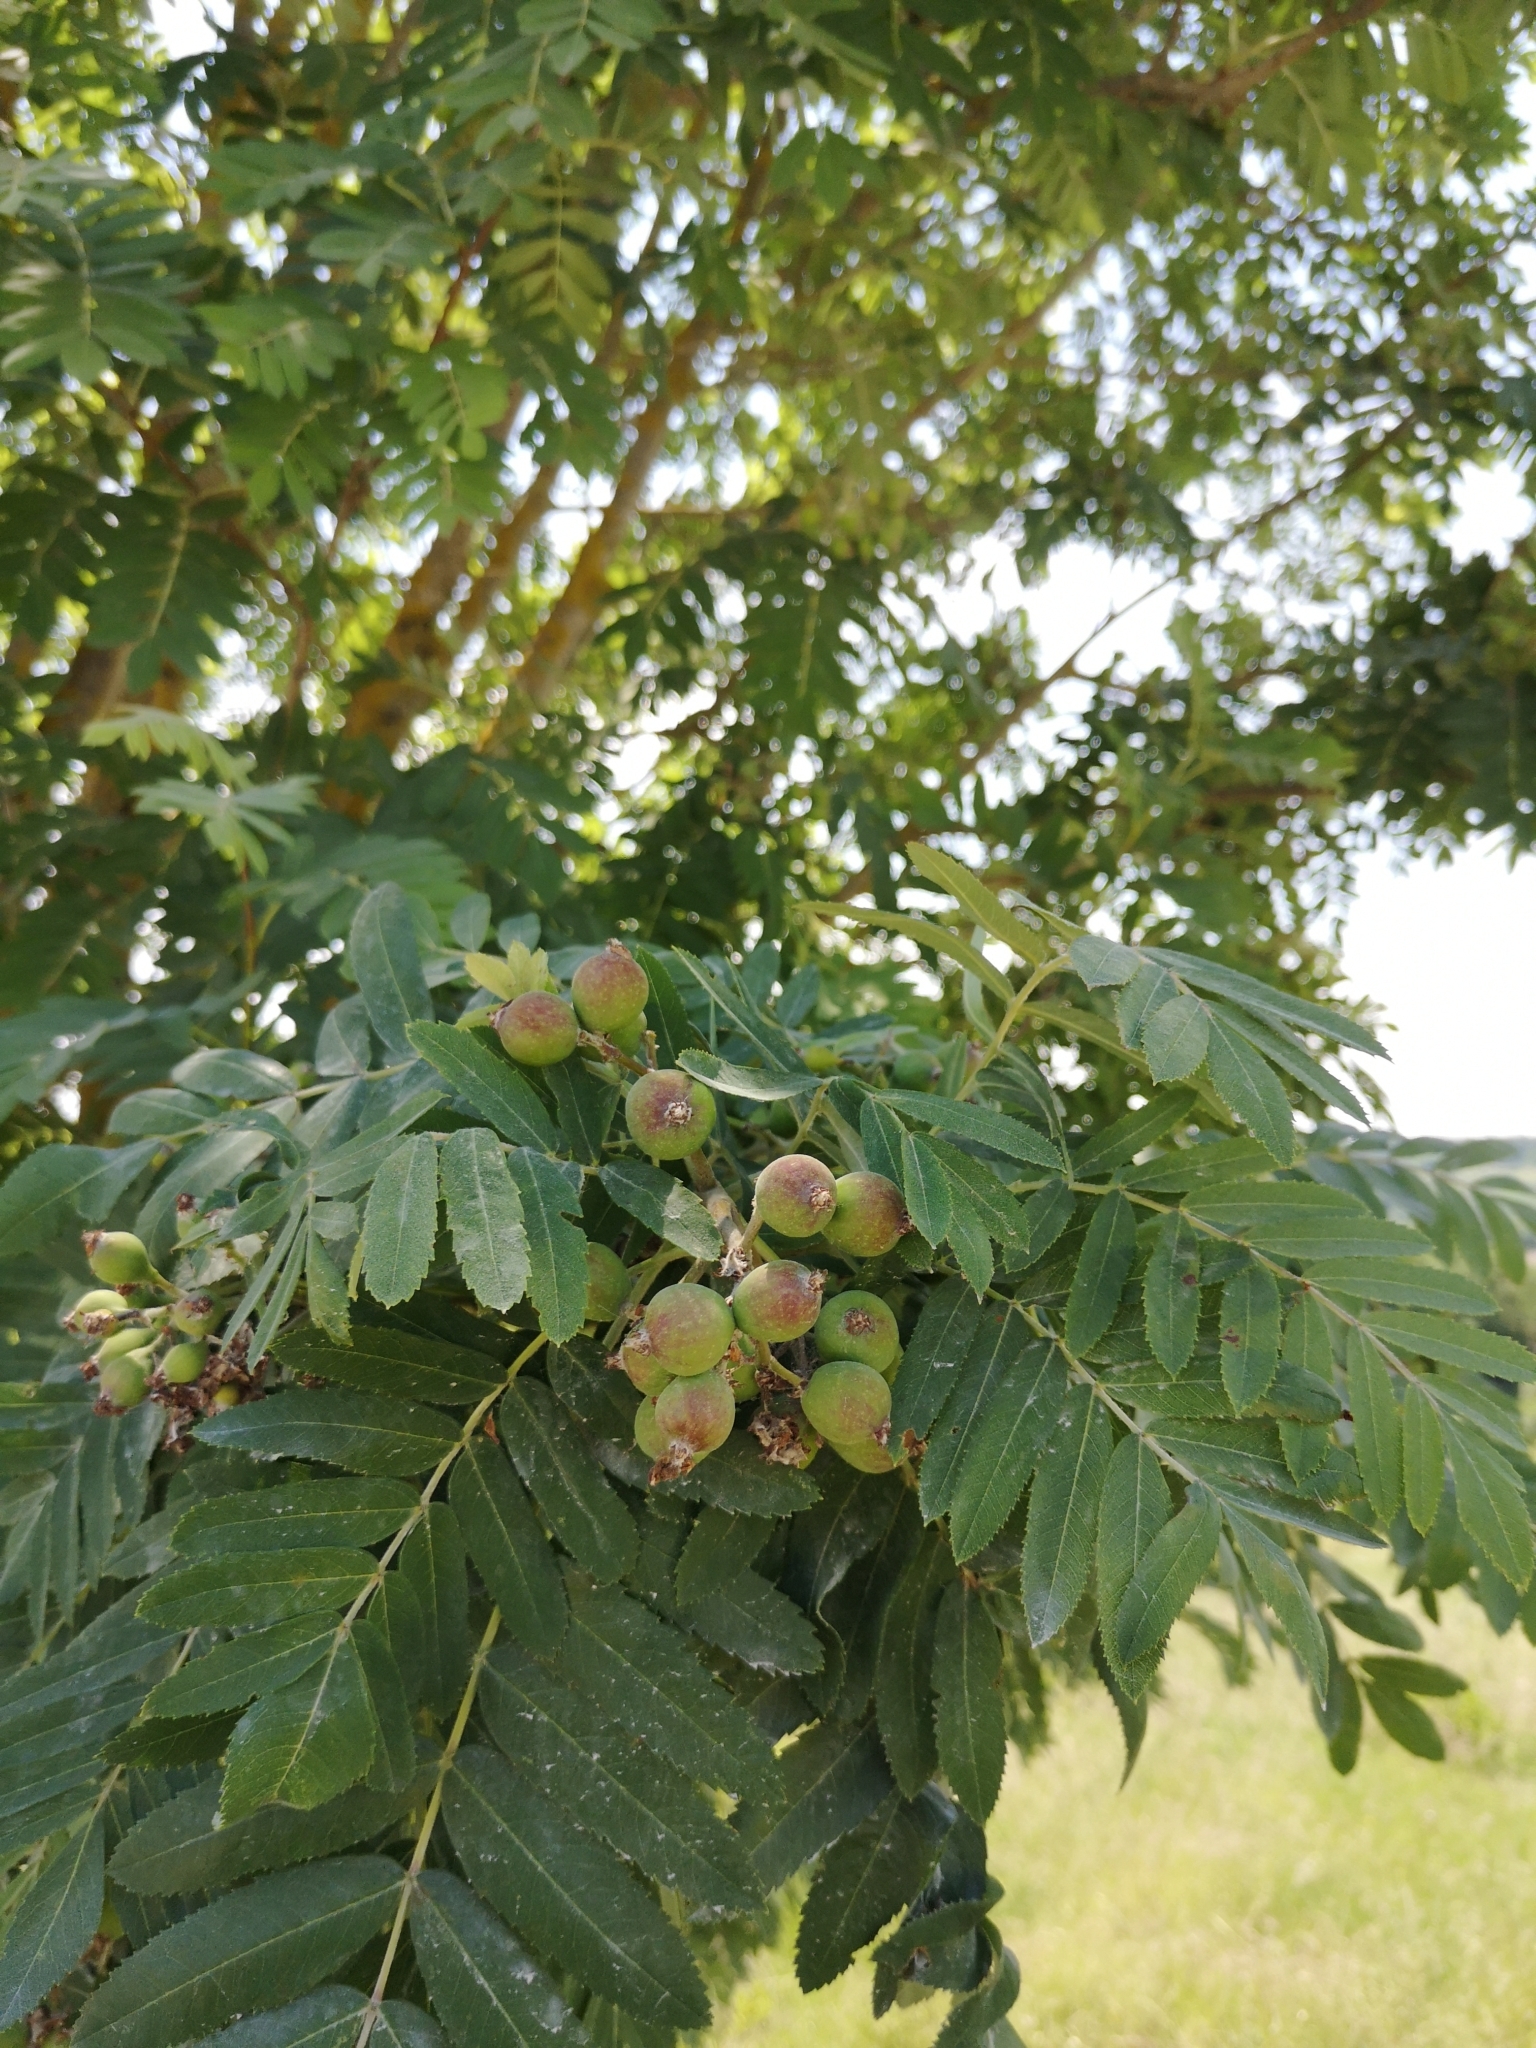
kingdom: Plantae
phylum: Tracheophyta
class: Magnoliopsida
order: Rosales
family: Rosaceae
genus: Cormus
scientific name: Cormus domestica
